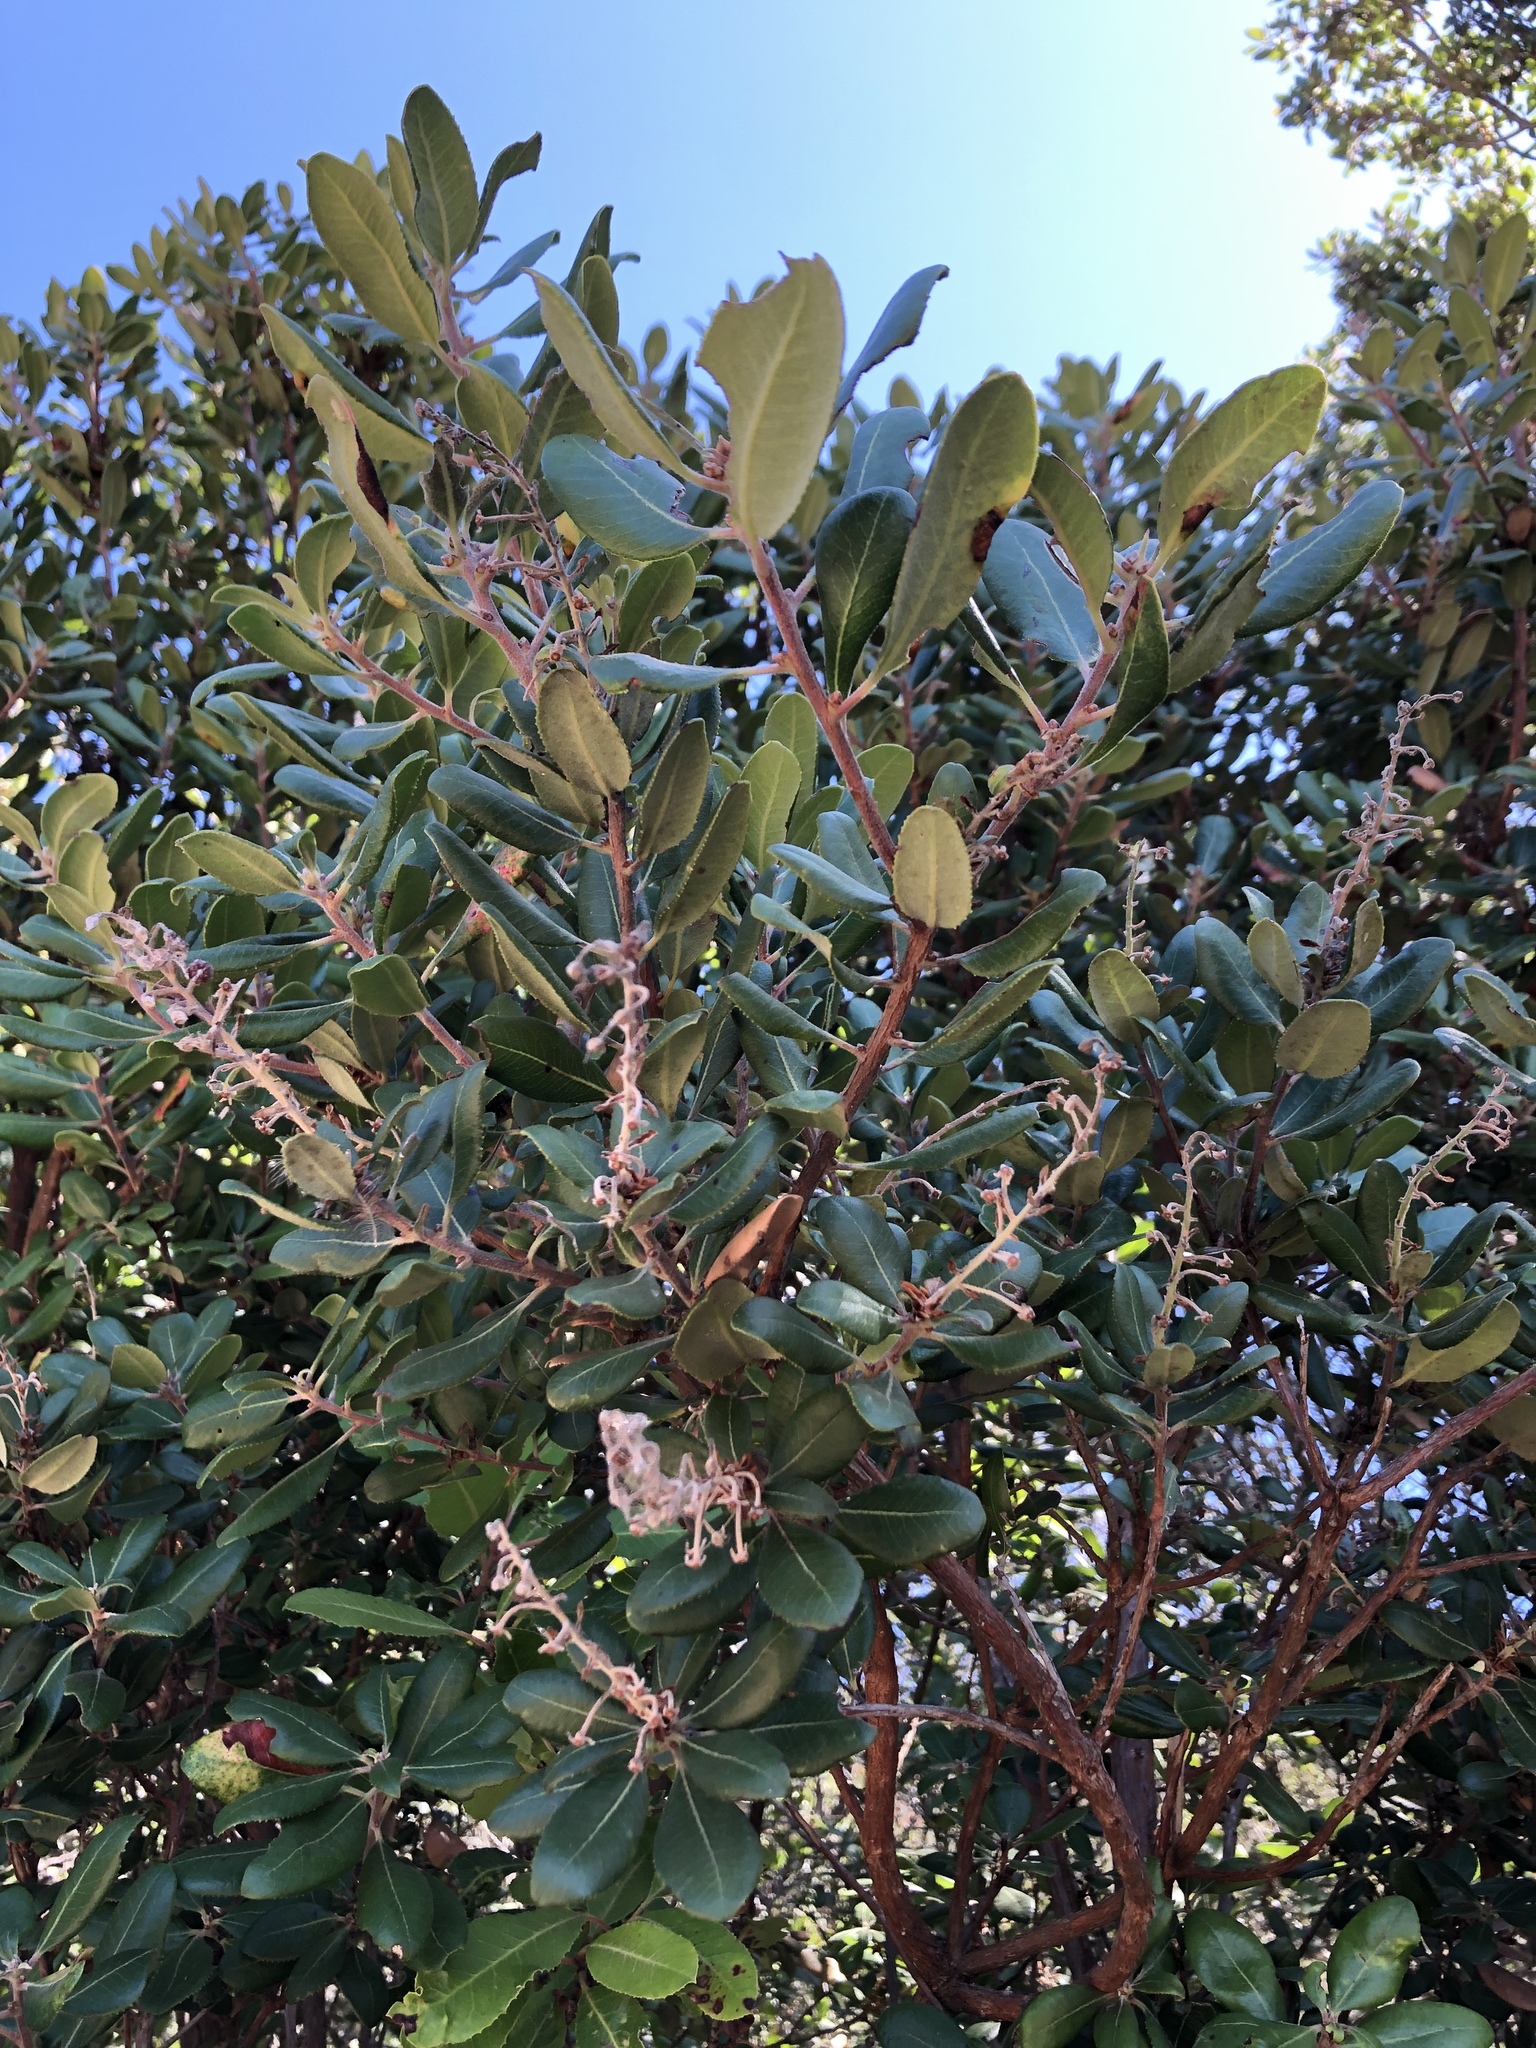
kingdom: Plantae
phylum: Tracheophyta
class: Magnoliopsida
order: Ericales
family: Ericaceae
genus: Comarostaphylis
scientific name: Comarostaphylis diversifolia
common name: Summer-holly
